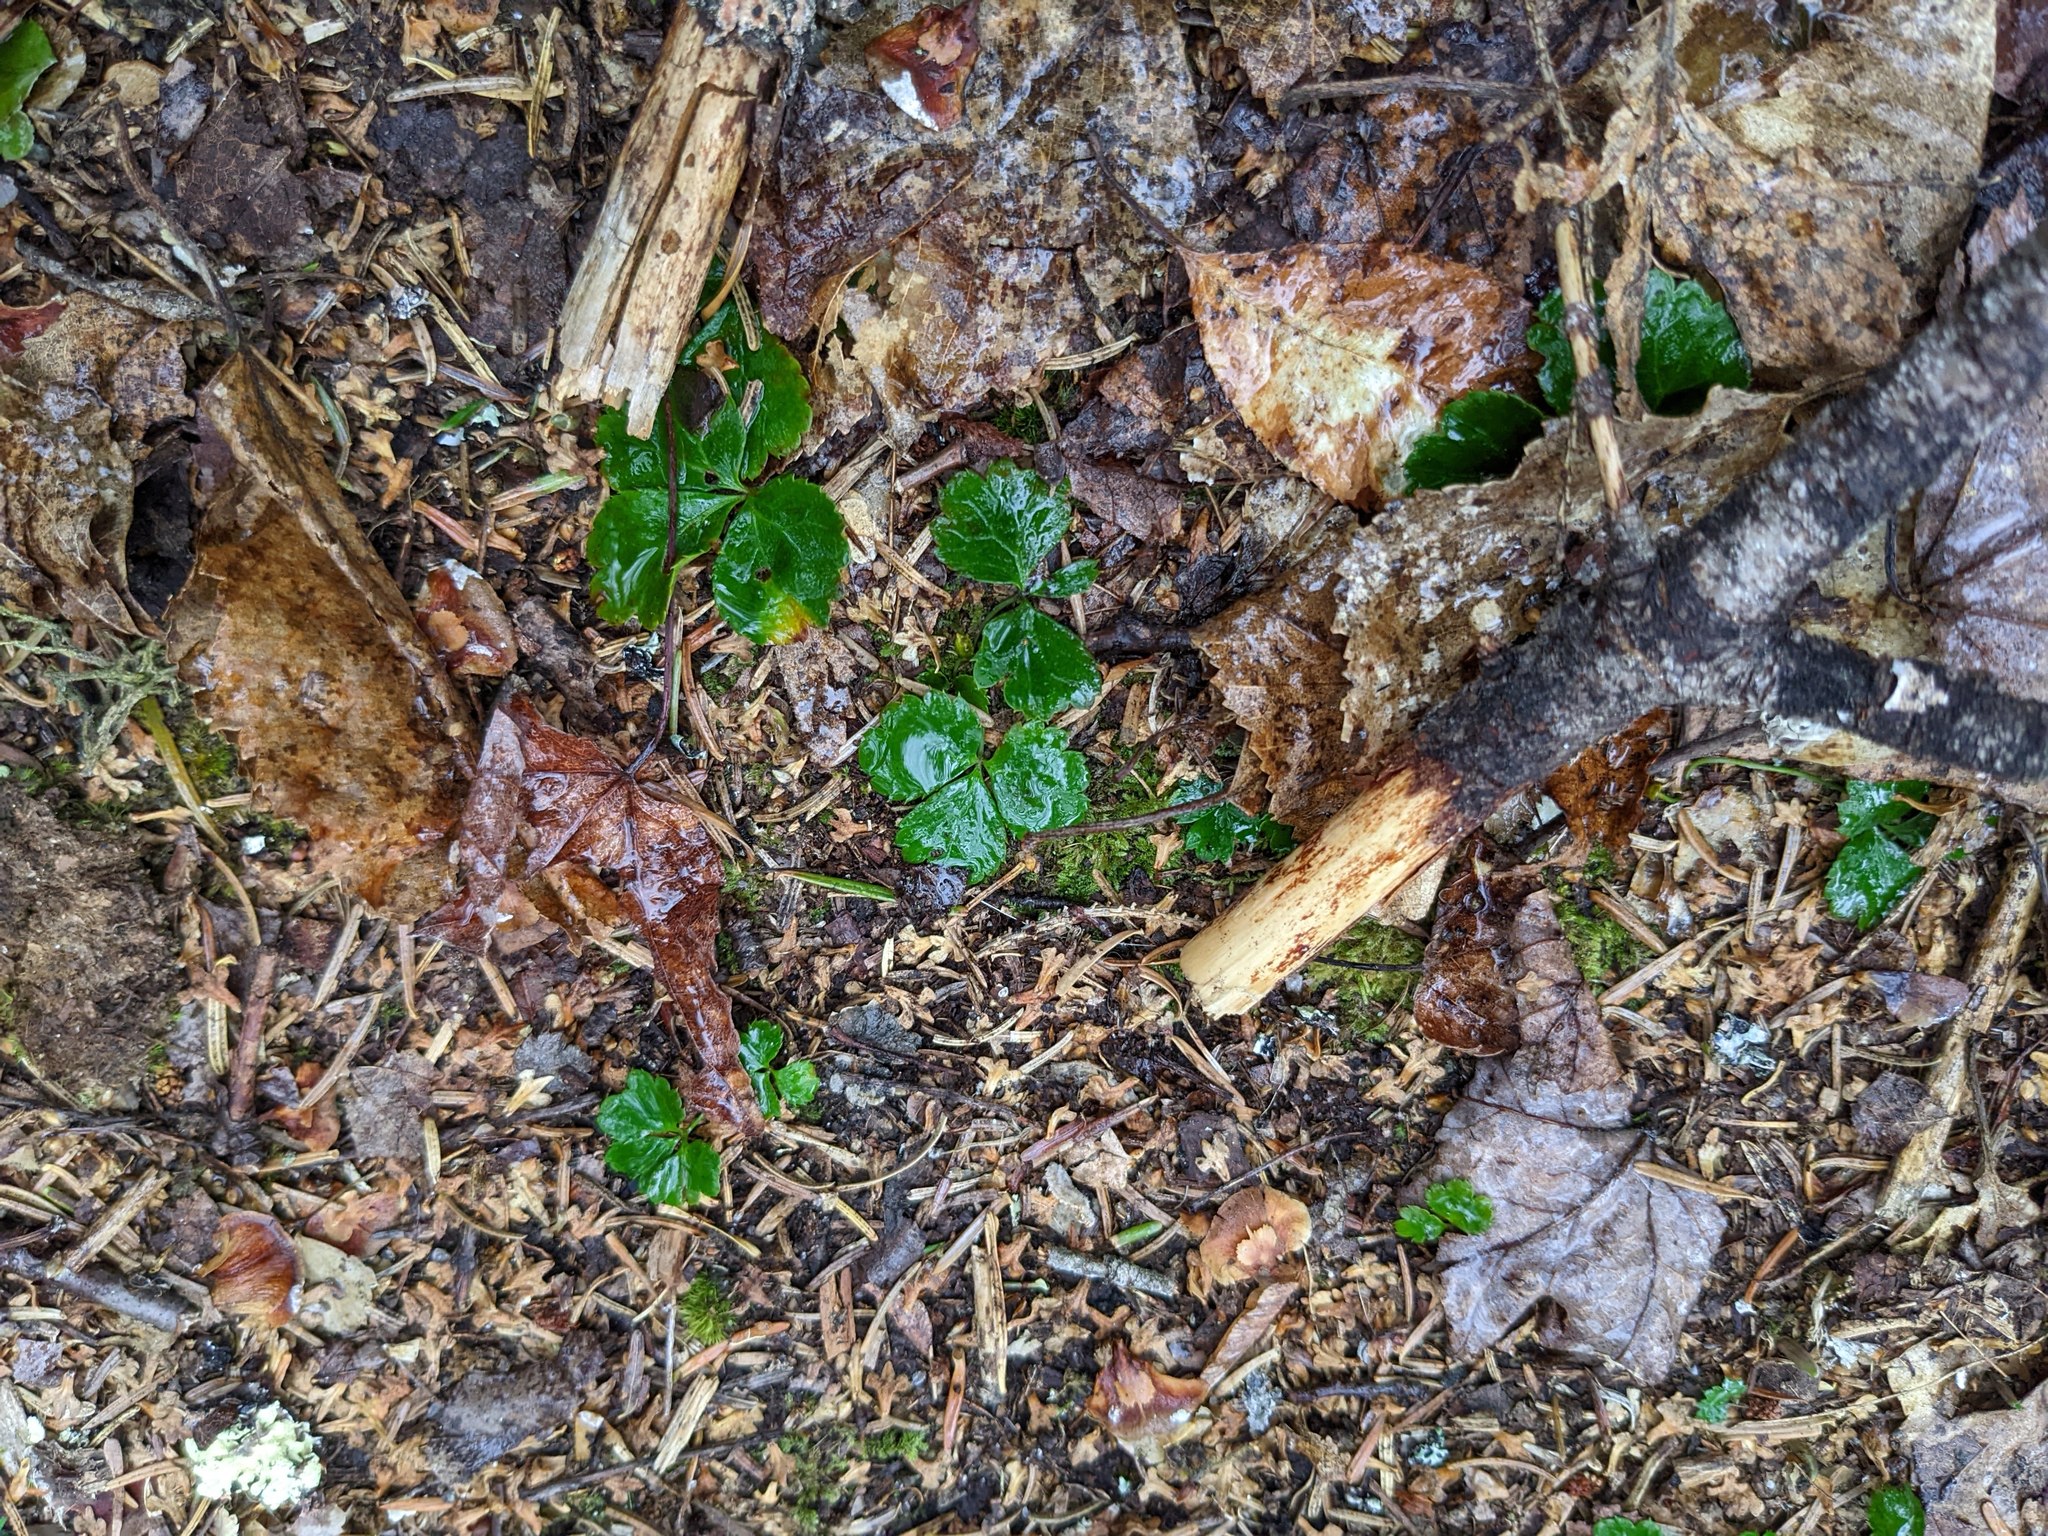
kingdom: Plantae
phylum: Tracheophyta
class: Magnoliopsida
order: Ranunculales
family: Ranunculaceae
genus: Coptis
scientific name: Coptis trifolia
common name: Canker-root
